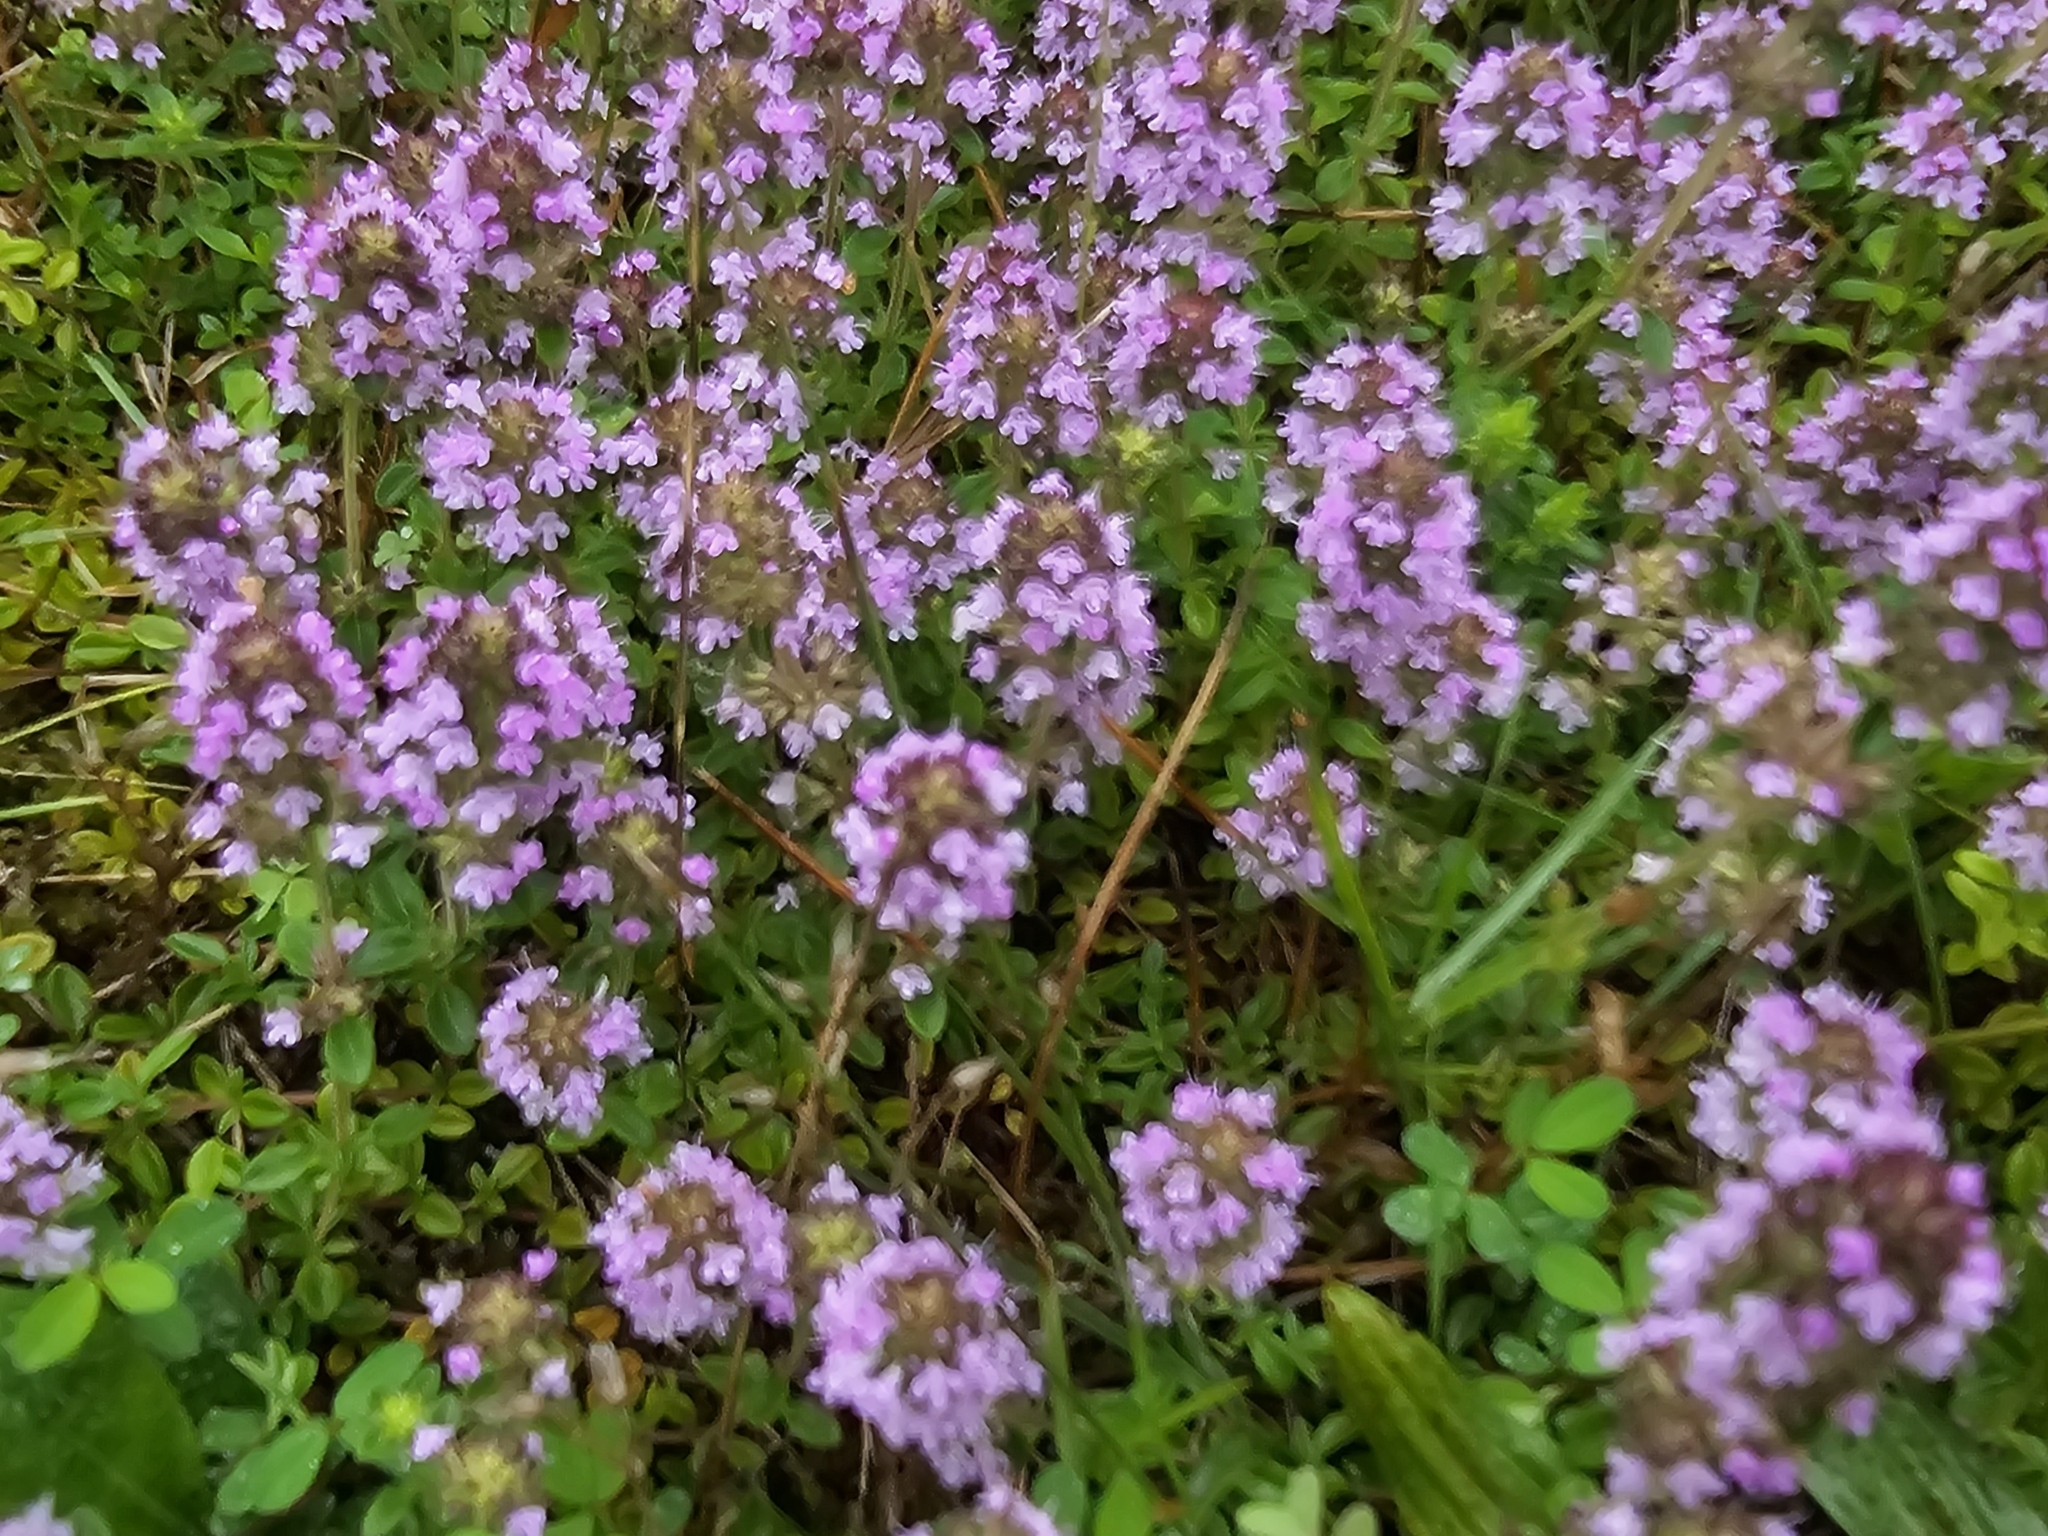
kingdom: Plantae
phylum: Tracheophyta
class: Magnoliopsida
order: Lamiales
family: Lamiaceae
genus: Thymus
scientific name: Thymus pulegioides
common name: Large thyme
